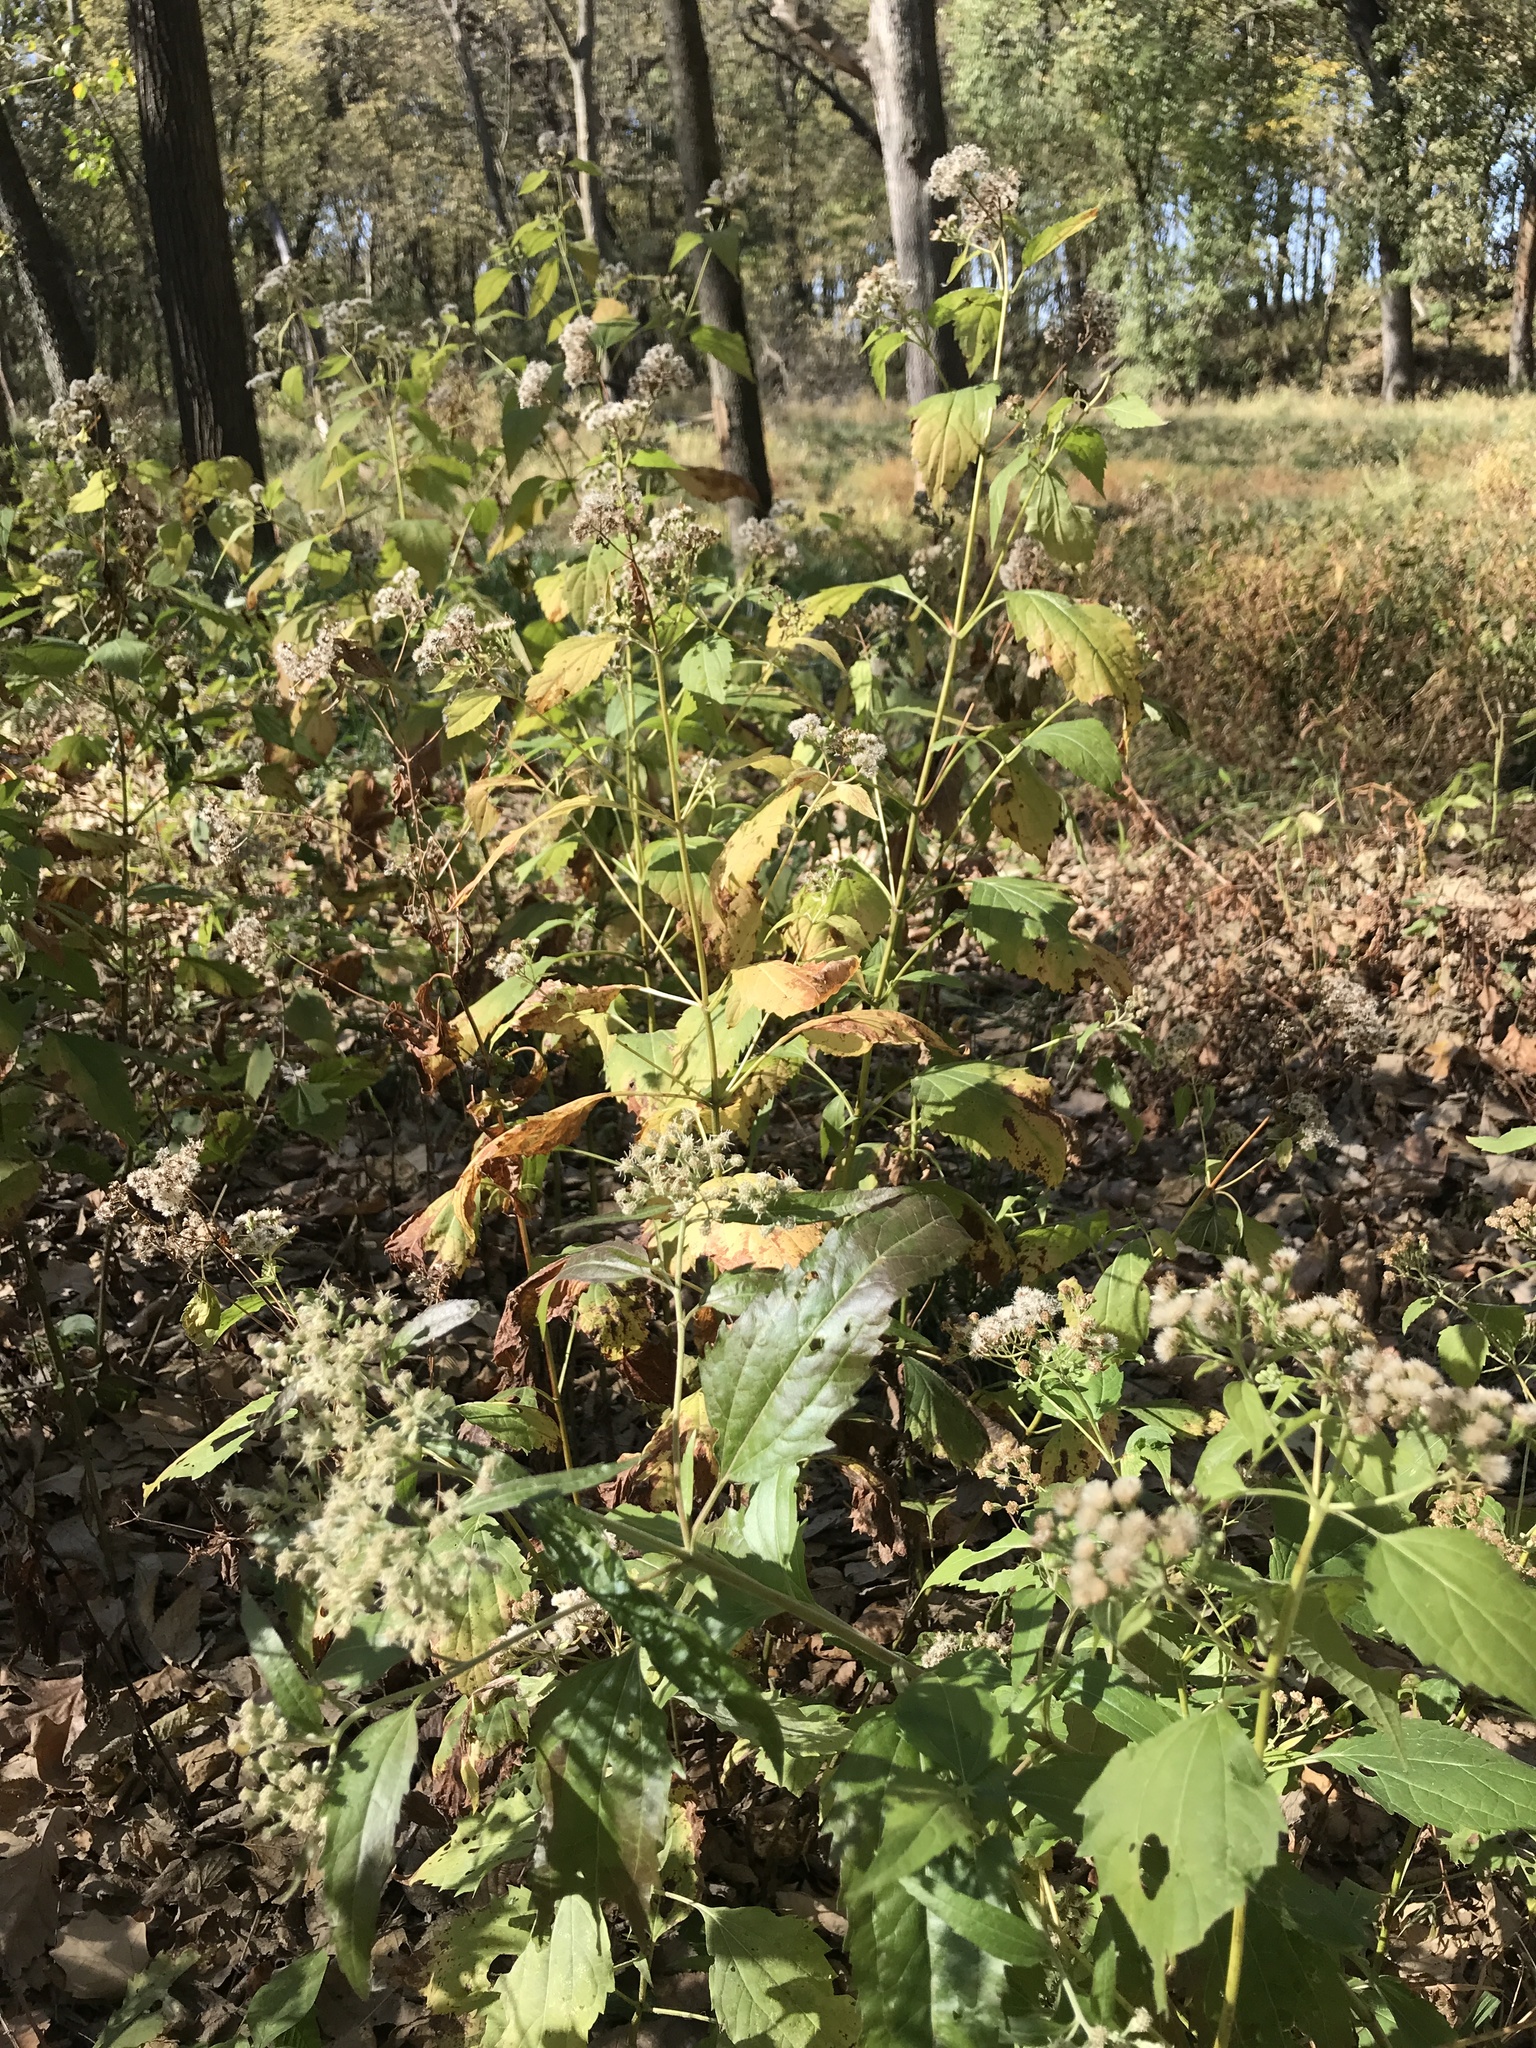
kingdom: Plantae
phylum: Tracheophyta
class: Magnoliopsida
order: Asterales
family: Asteraceae
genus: Ageratina
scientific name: Ageratina altissima
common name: White snakeroot
